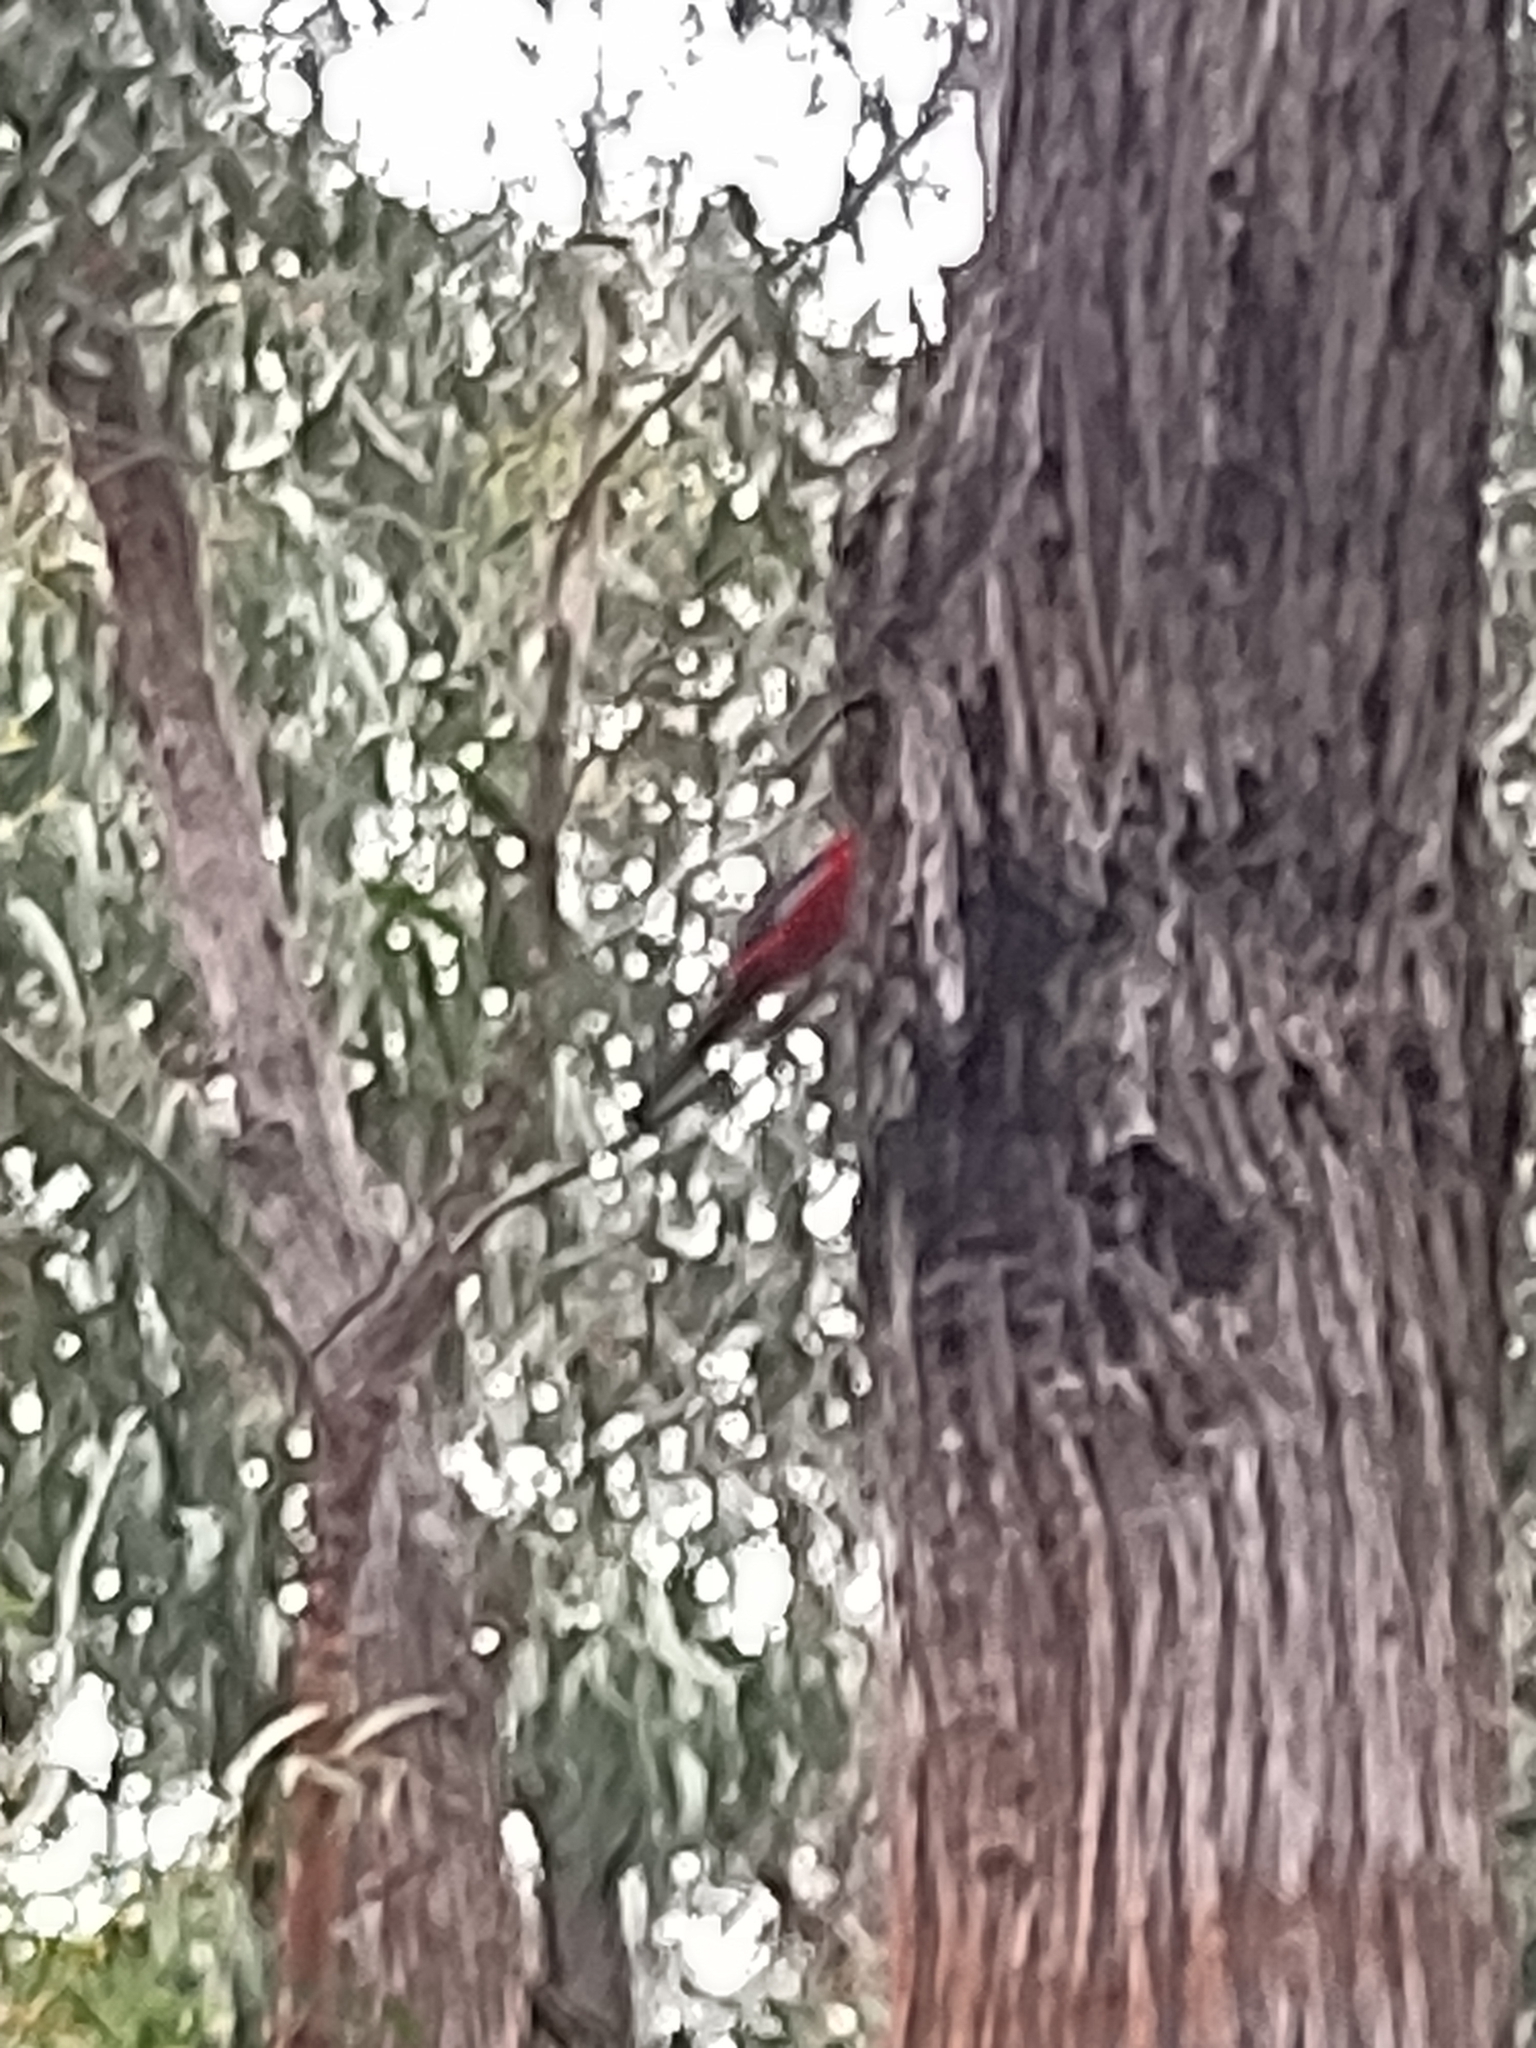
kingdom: Animalia
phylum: Chordata
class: Aves
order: Psittaciformes
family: Psittacidae
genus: Platycercus
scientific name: Platycercus elegans
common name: Crimson rosella
